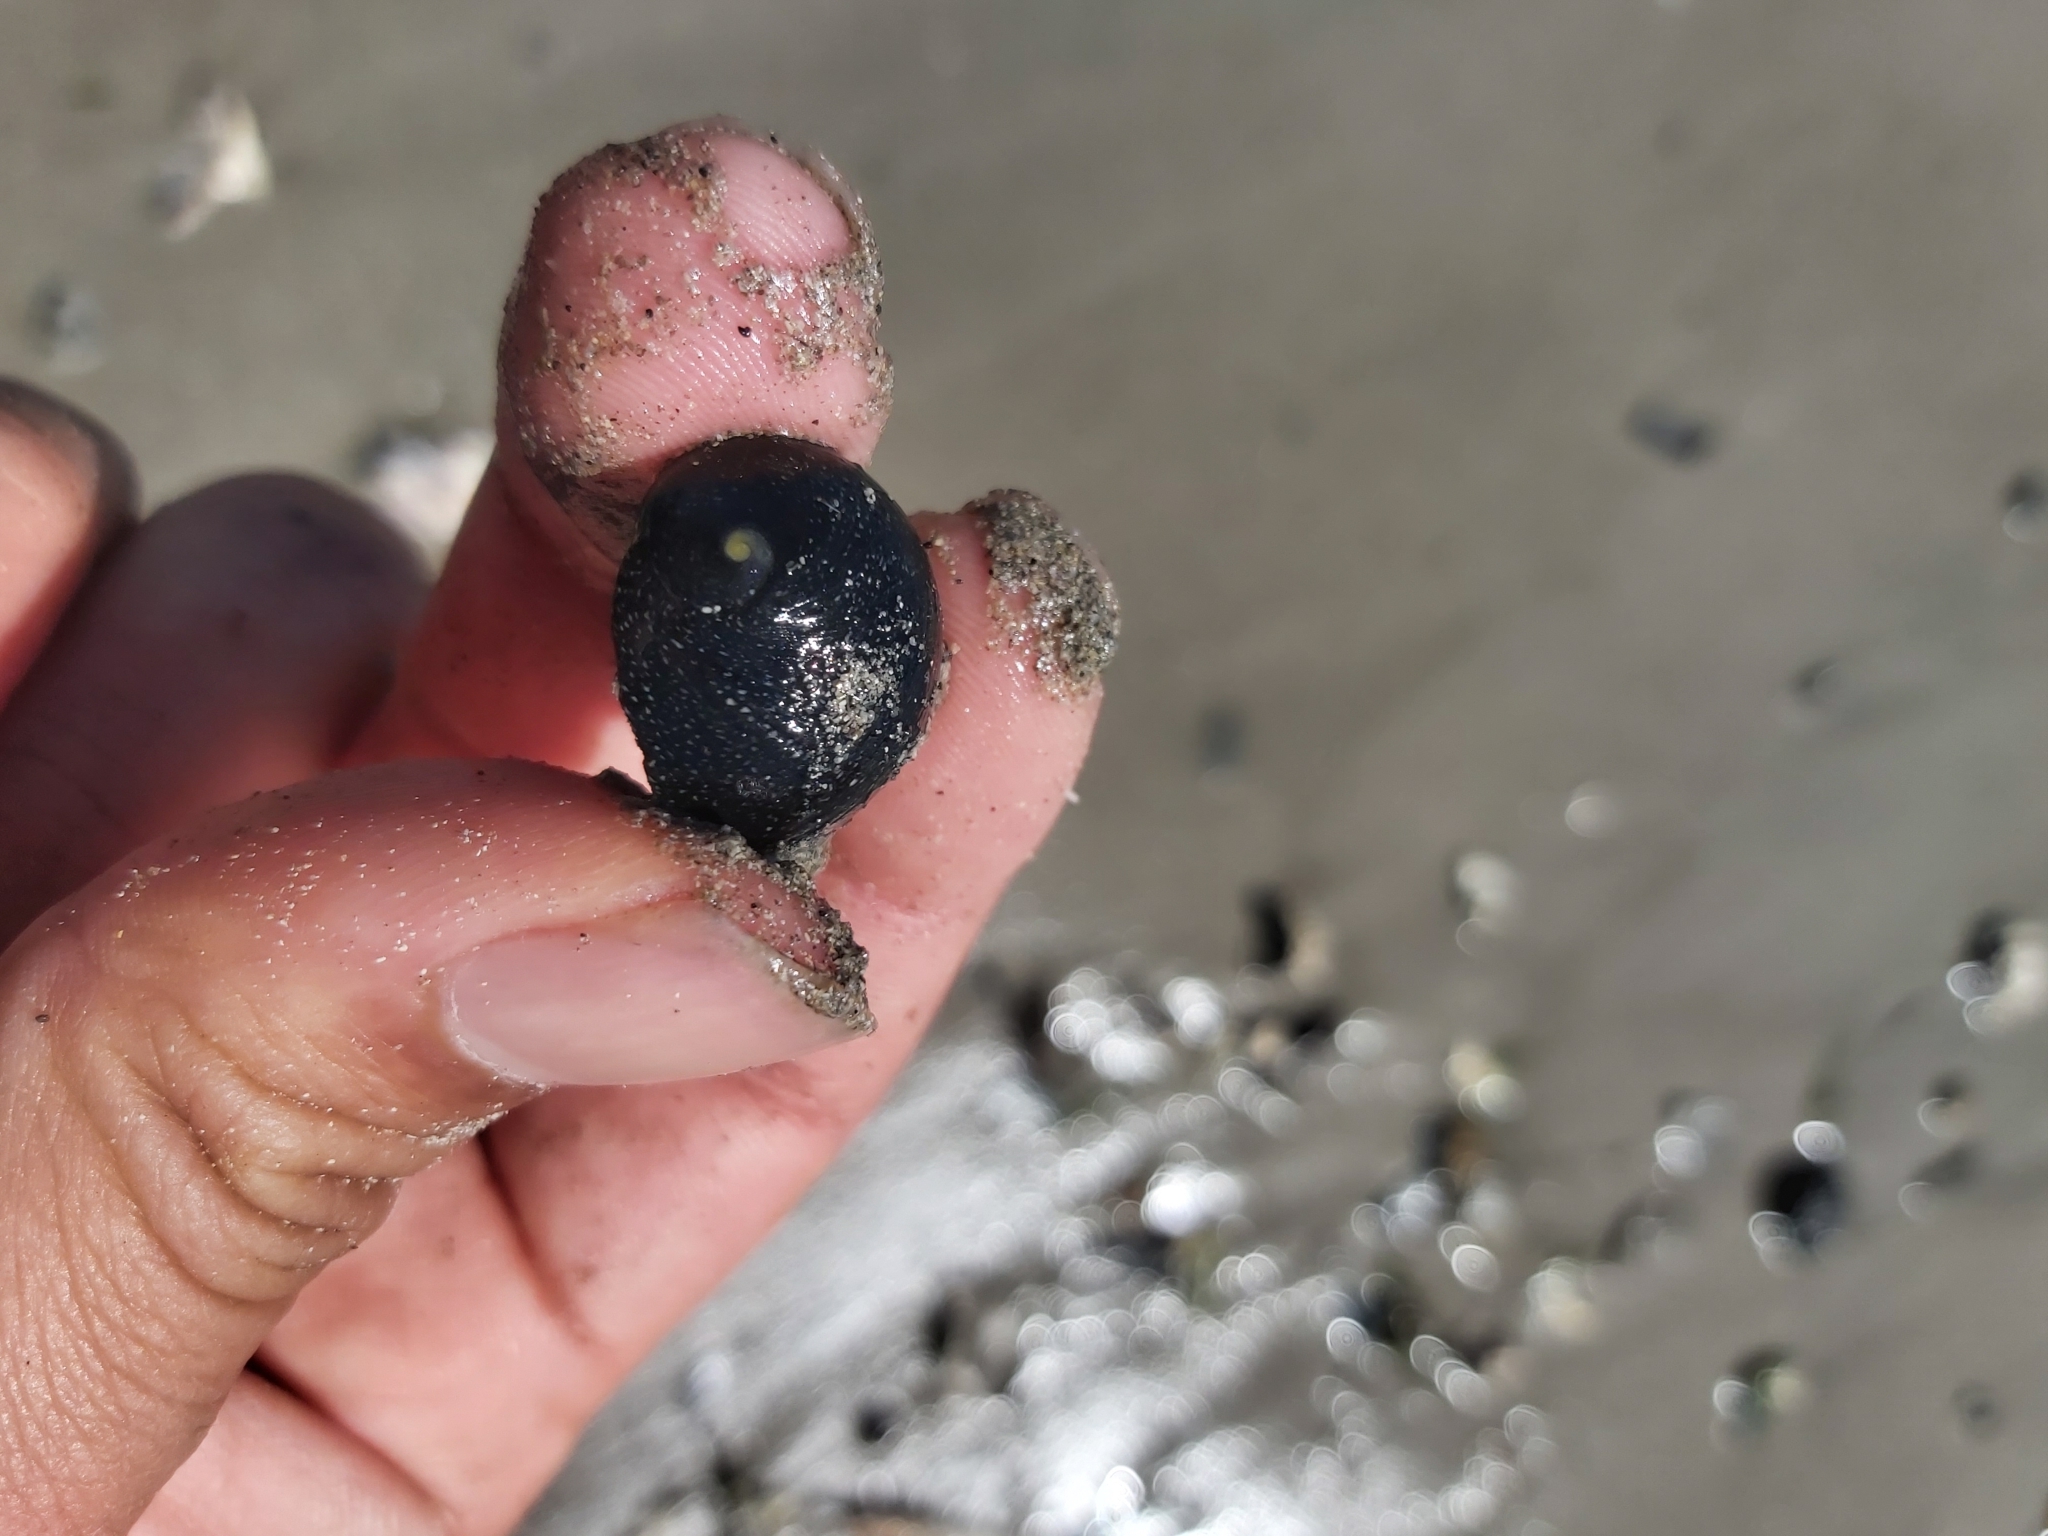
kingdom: Animalia
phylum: Mollusca
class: Gastropoda
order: Cycloneritida
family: Neritidae
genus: Nerita
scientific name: Nerita melanotragus
